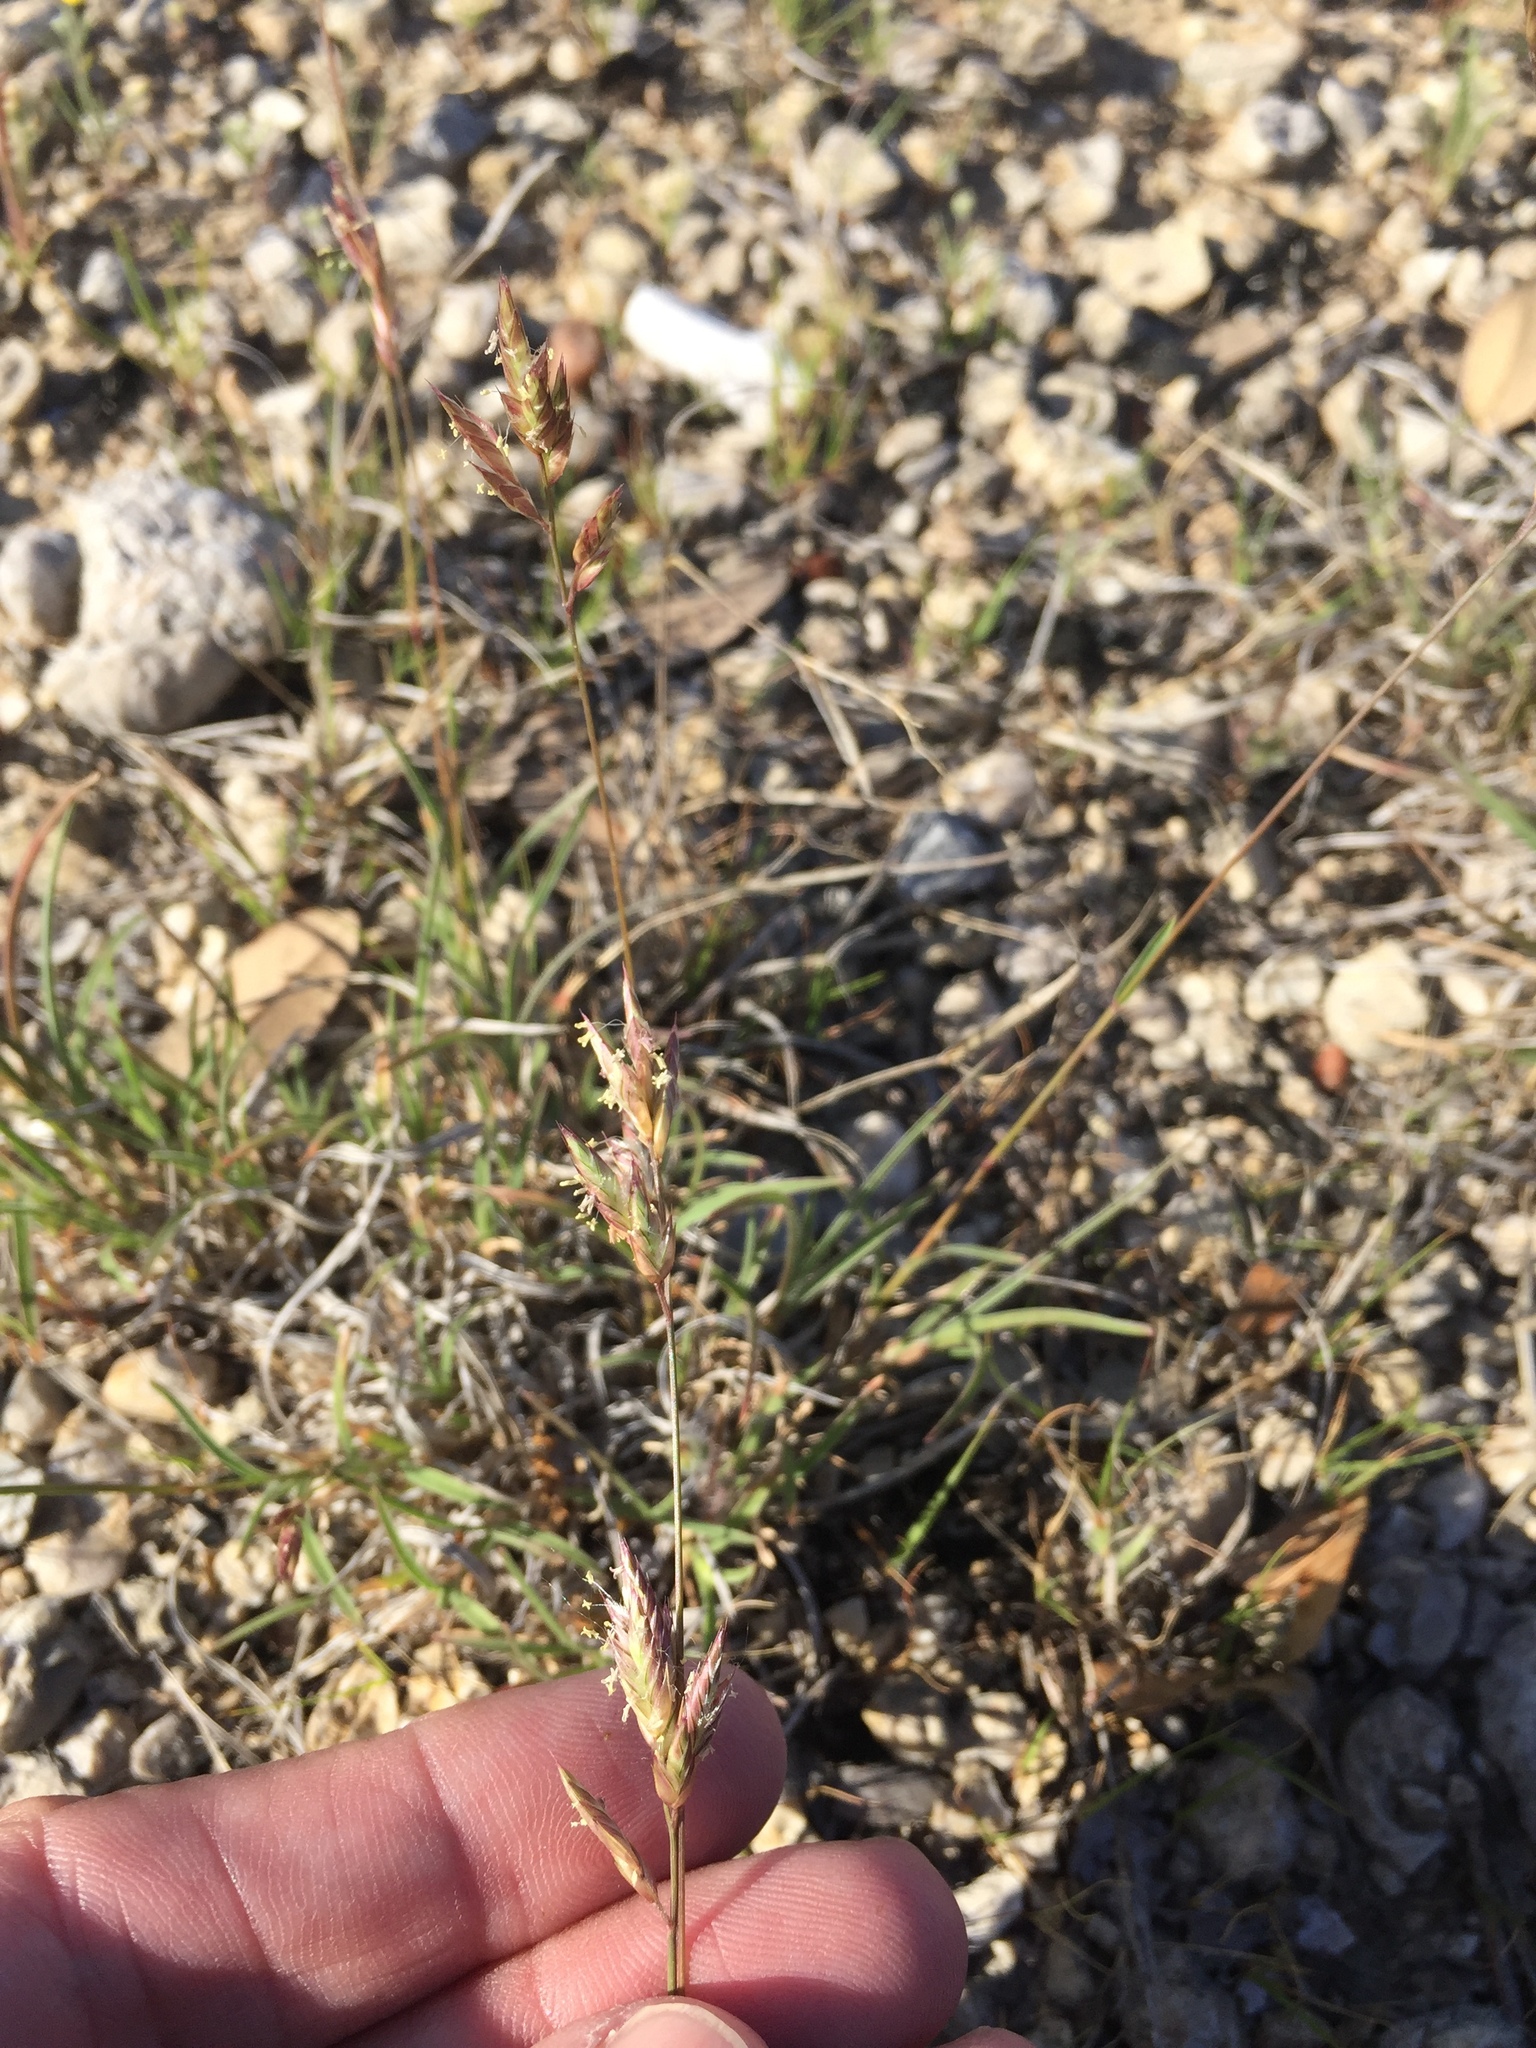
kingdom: Plantae
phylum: Tracheophyta
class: Liliopsida
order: Poales
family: Poaceae
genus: Erioneuron
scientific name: Erioneuron pilosum
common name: Hairy woolly grass
